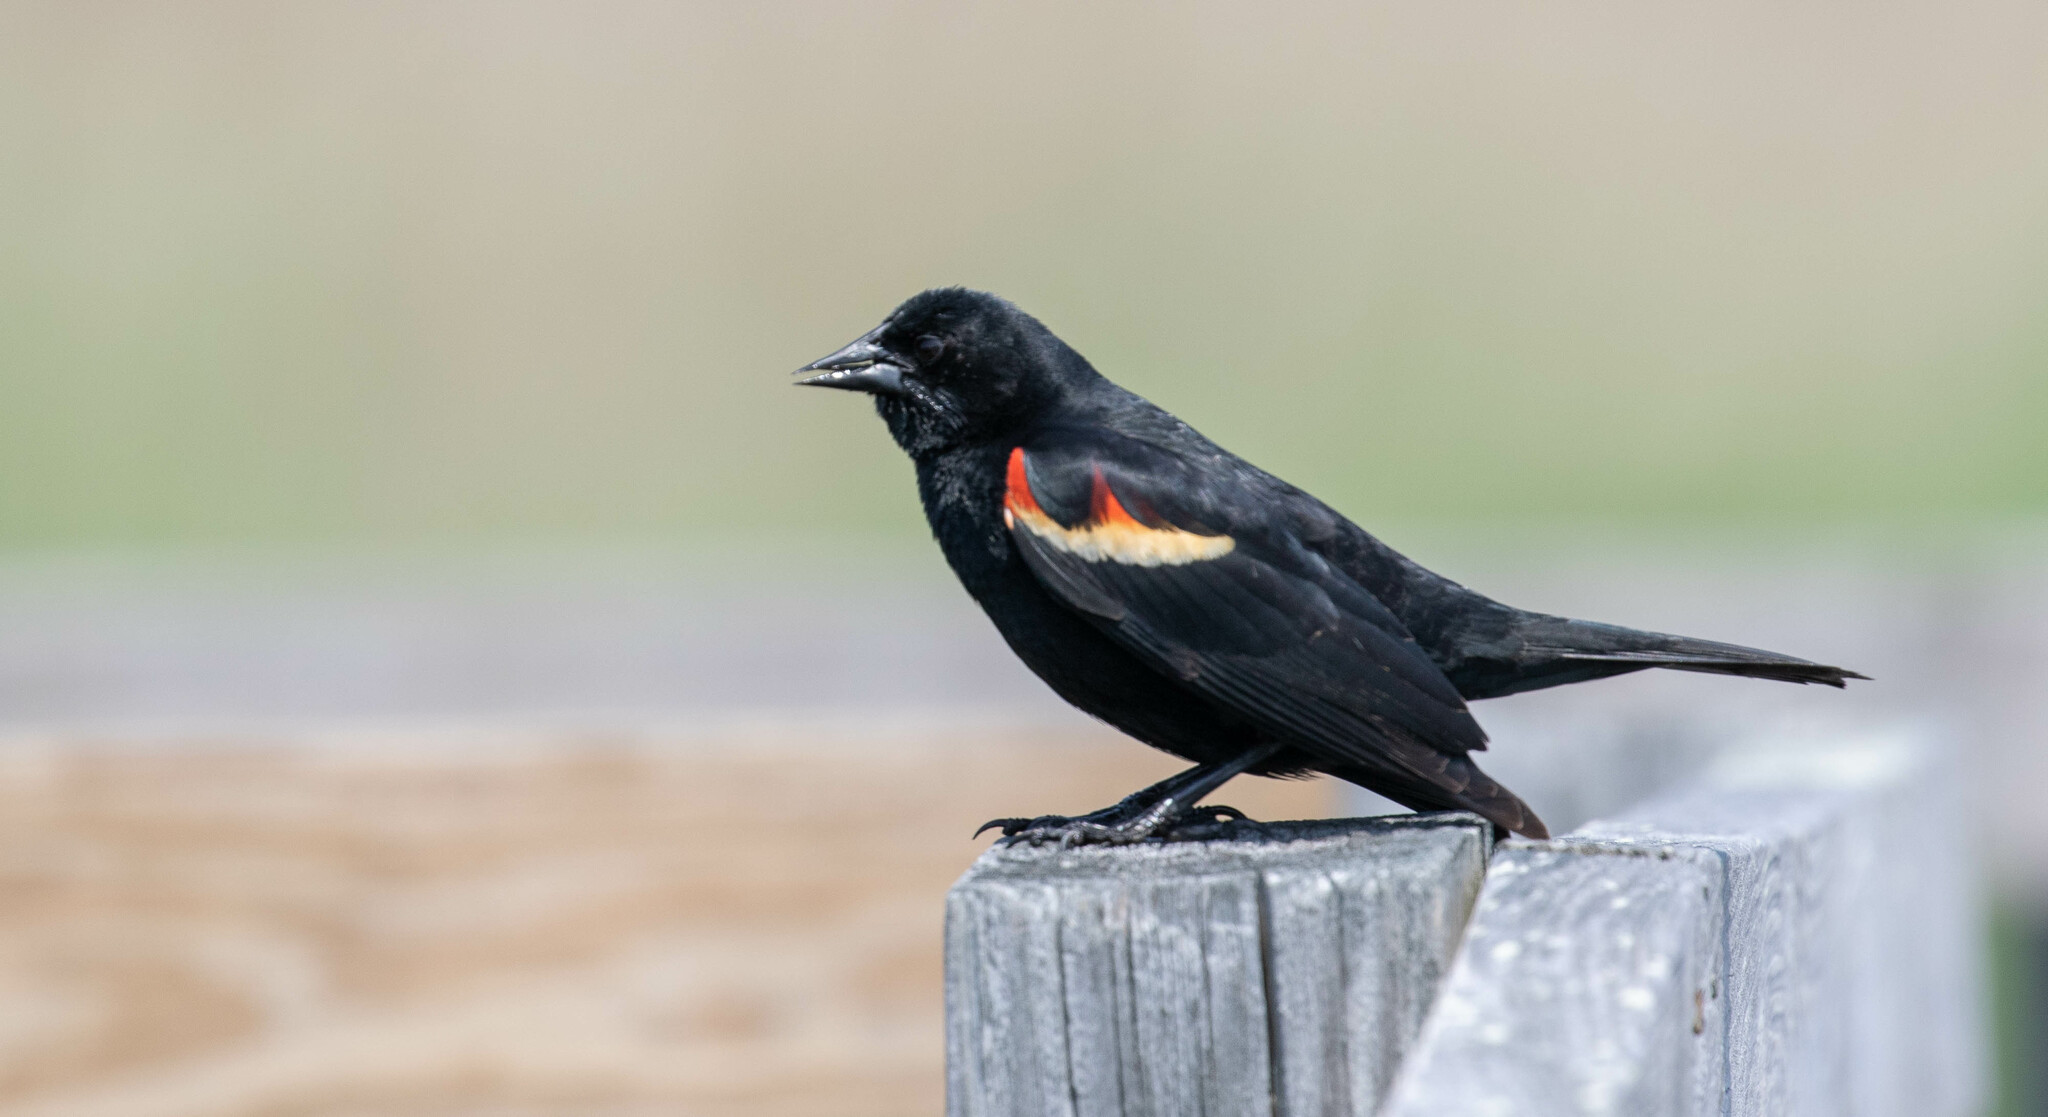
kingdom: Animalia
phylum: Chordata
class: Aves
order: Passeriformes
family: Icteridae
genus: Agelaius
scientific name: Agelaius phoeniceus
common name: Red-winged blackbird
